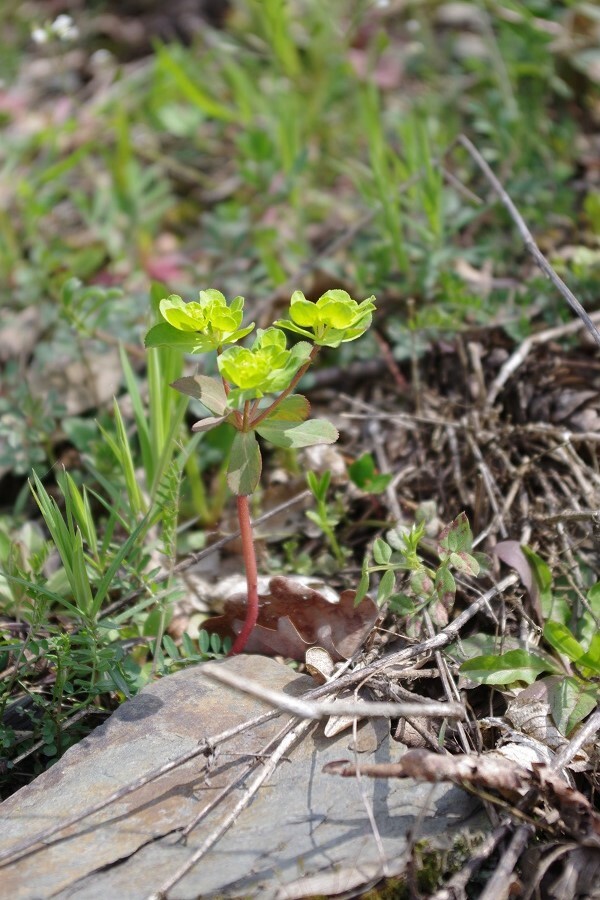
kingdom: Plantae
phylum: Tracheophyta
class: Magnoliopsida
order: Malpighiales
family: Euphorbiaceae
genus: Euphorbia
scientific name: Euphorbia helioscopia
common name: Sun spurge
